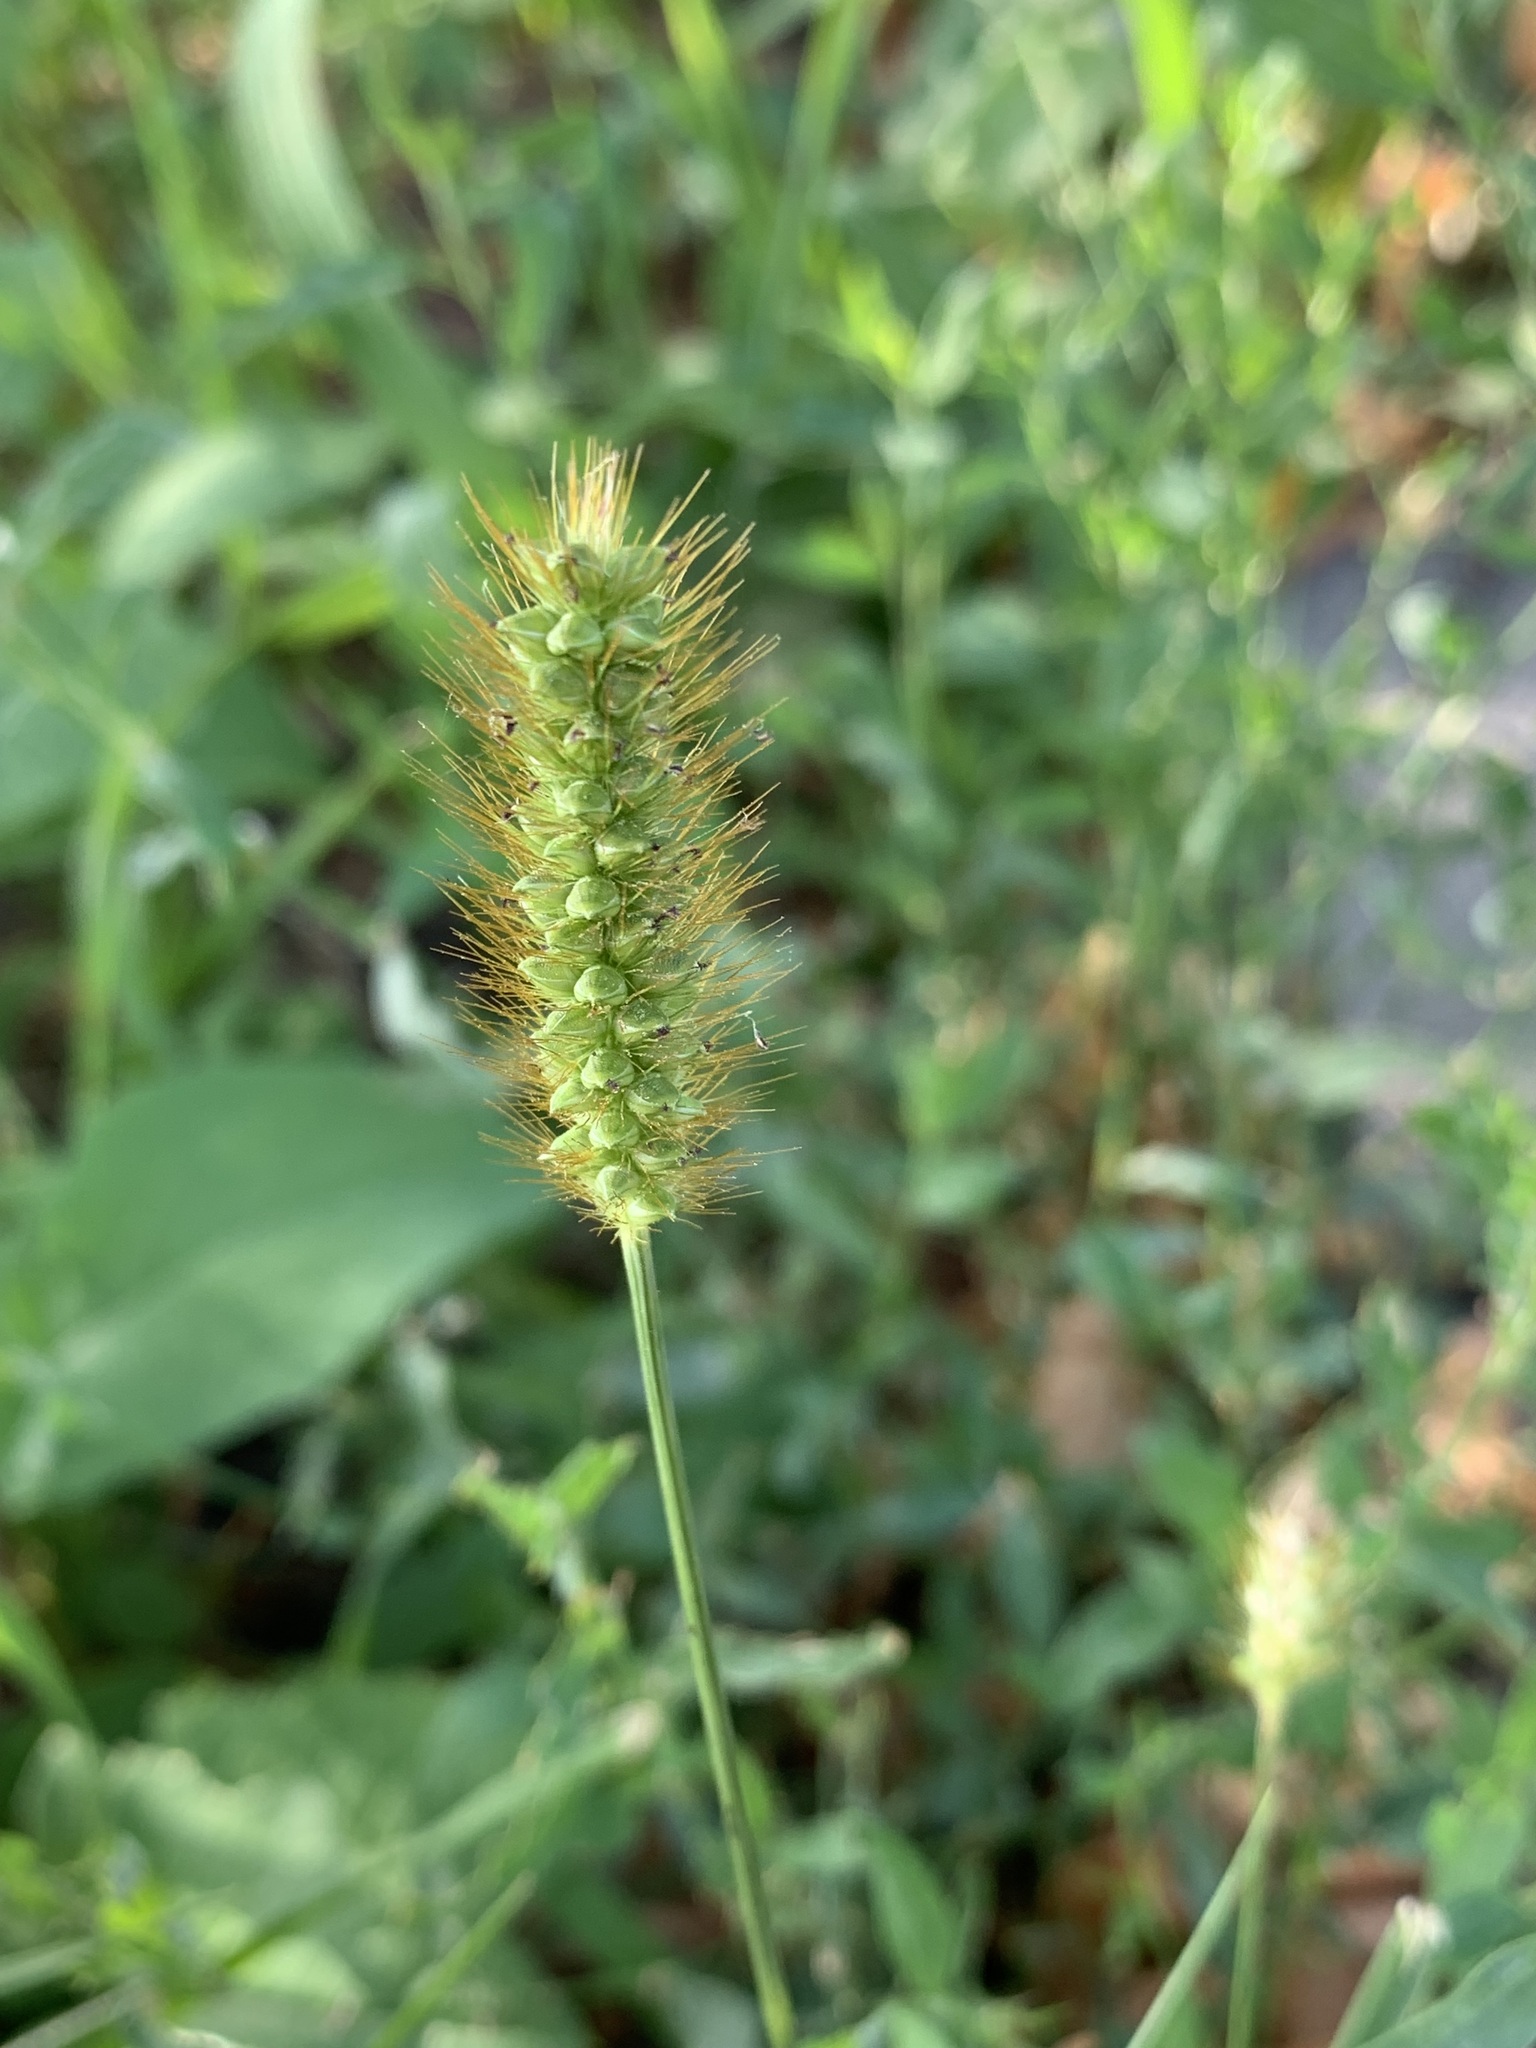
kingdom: Plantae
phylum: Tracheophyta
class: Liliopsida
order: Poales
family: Poaceae
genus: Setaria
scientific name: Setaria pumila
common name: Yellow bristle-grass
